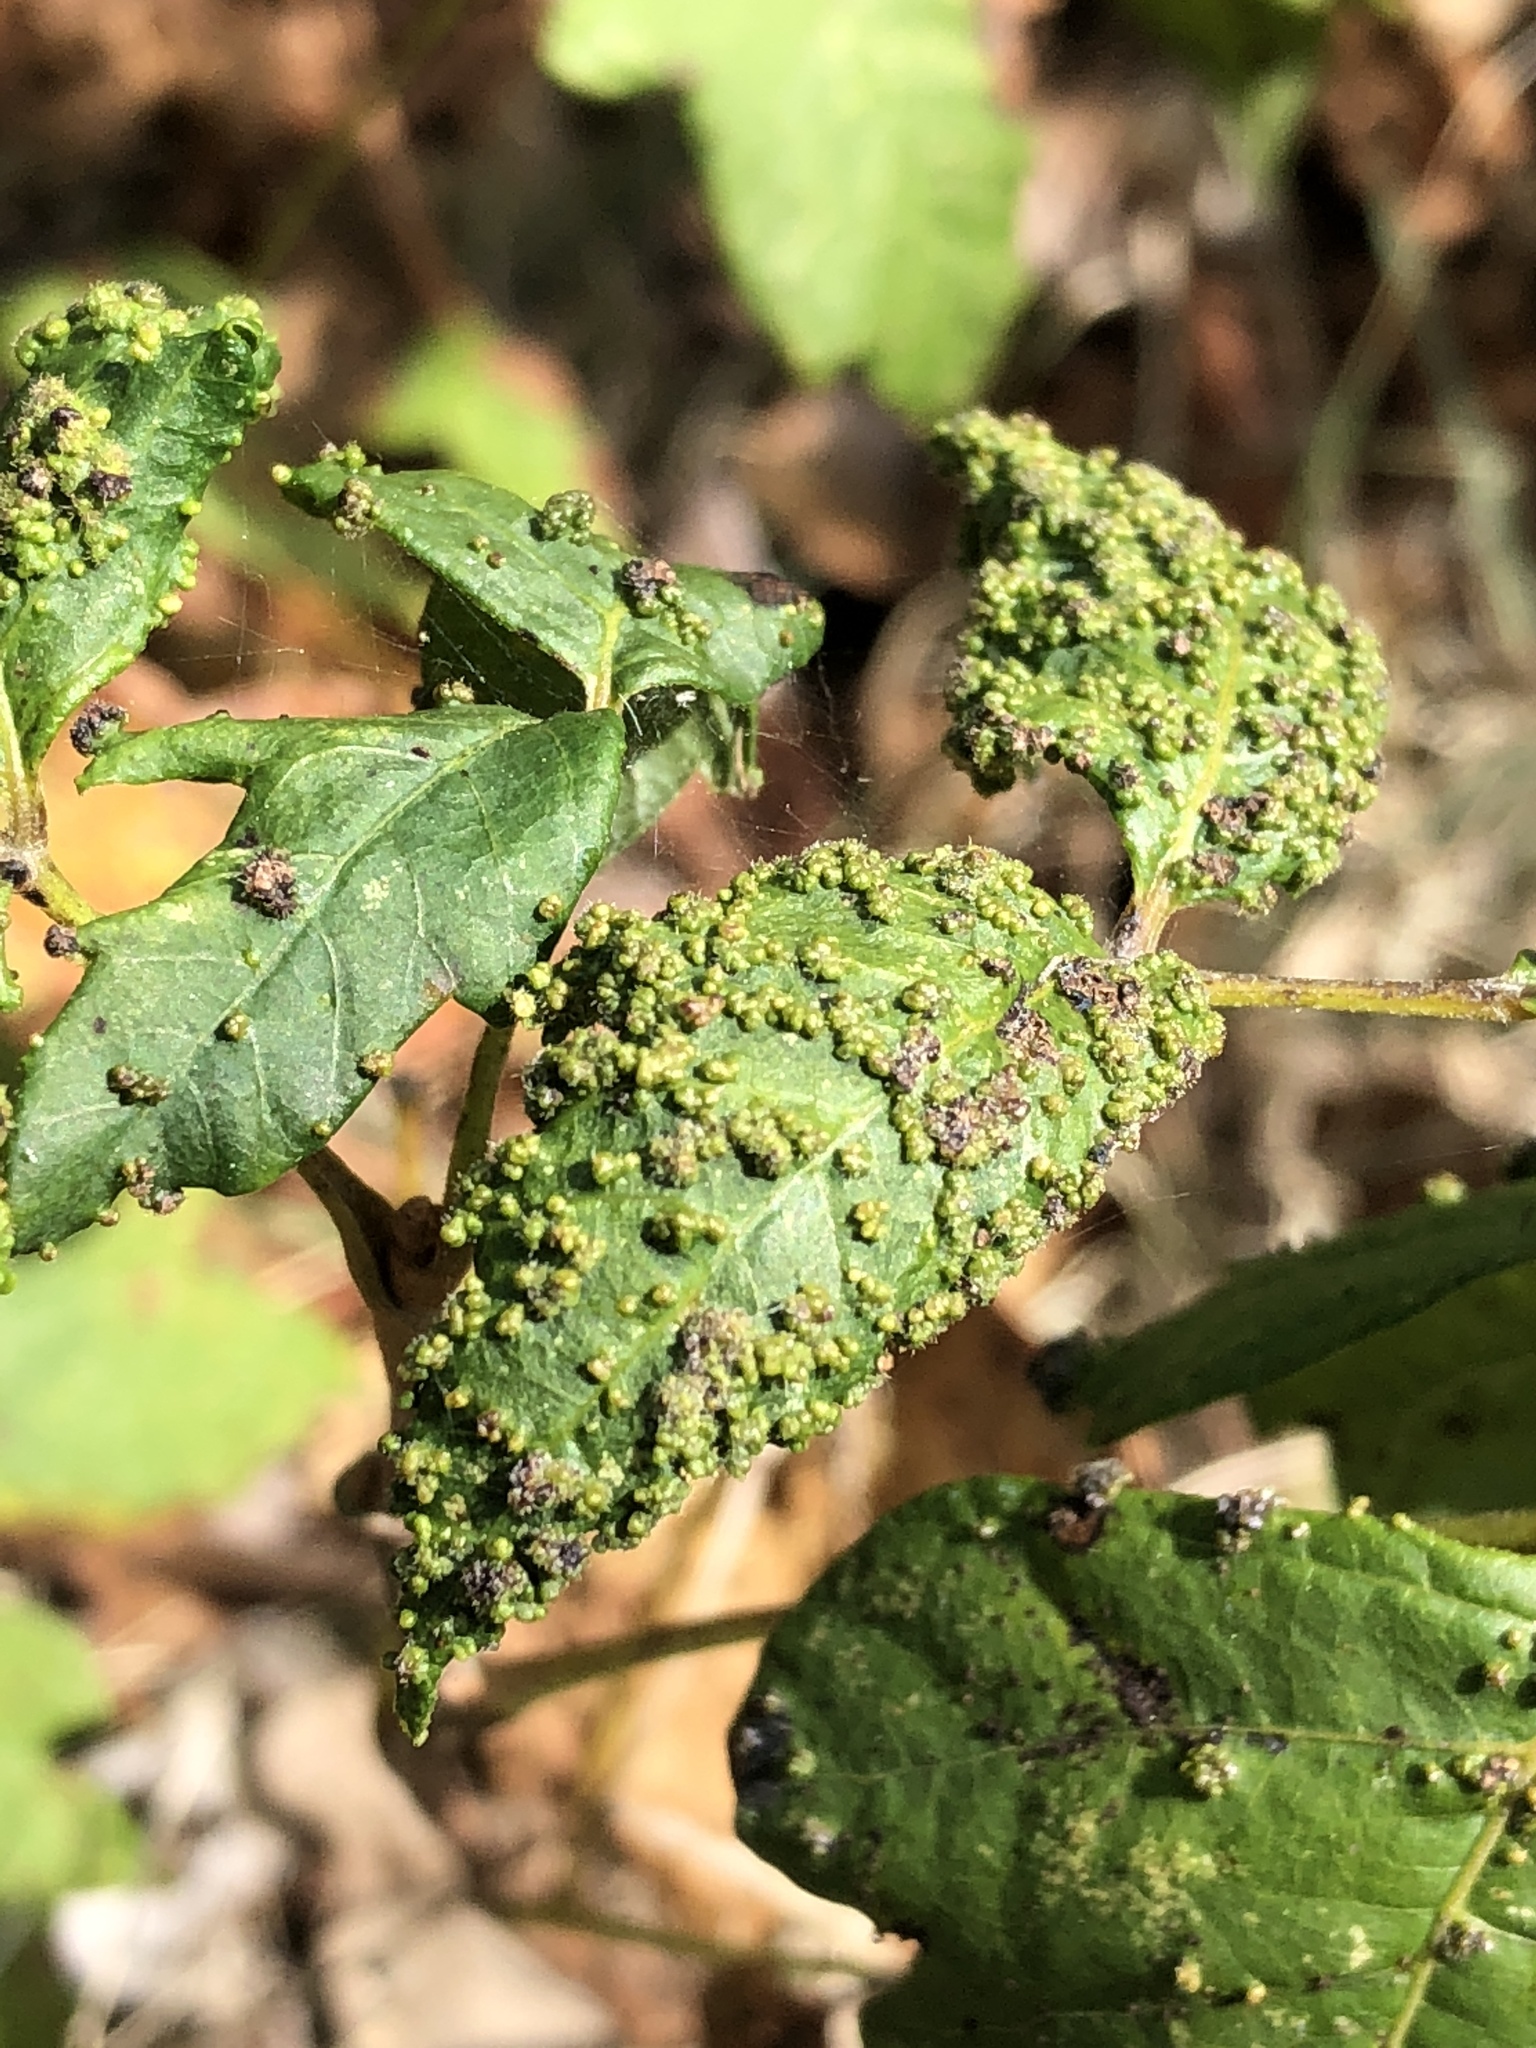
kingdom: Animalia
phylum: Arthropoda
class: Arachnida
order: Trombidiformes
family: Eriophyidae
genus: Aculops
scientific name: Aculops
